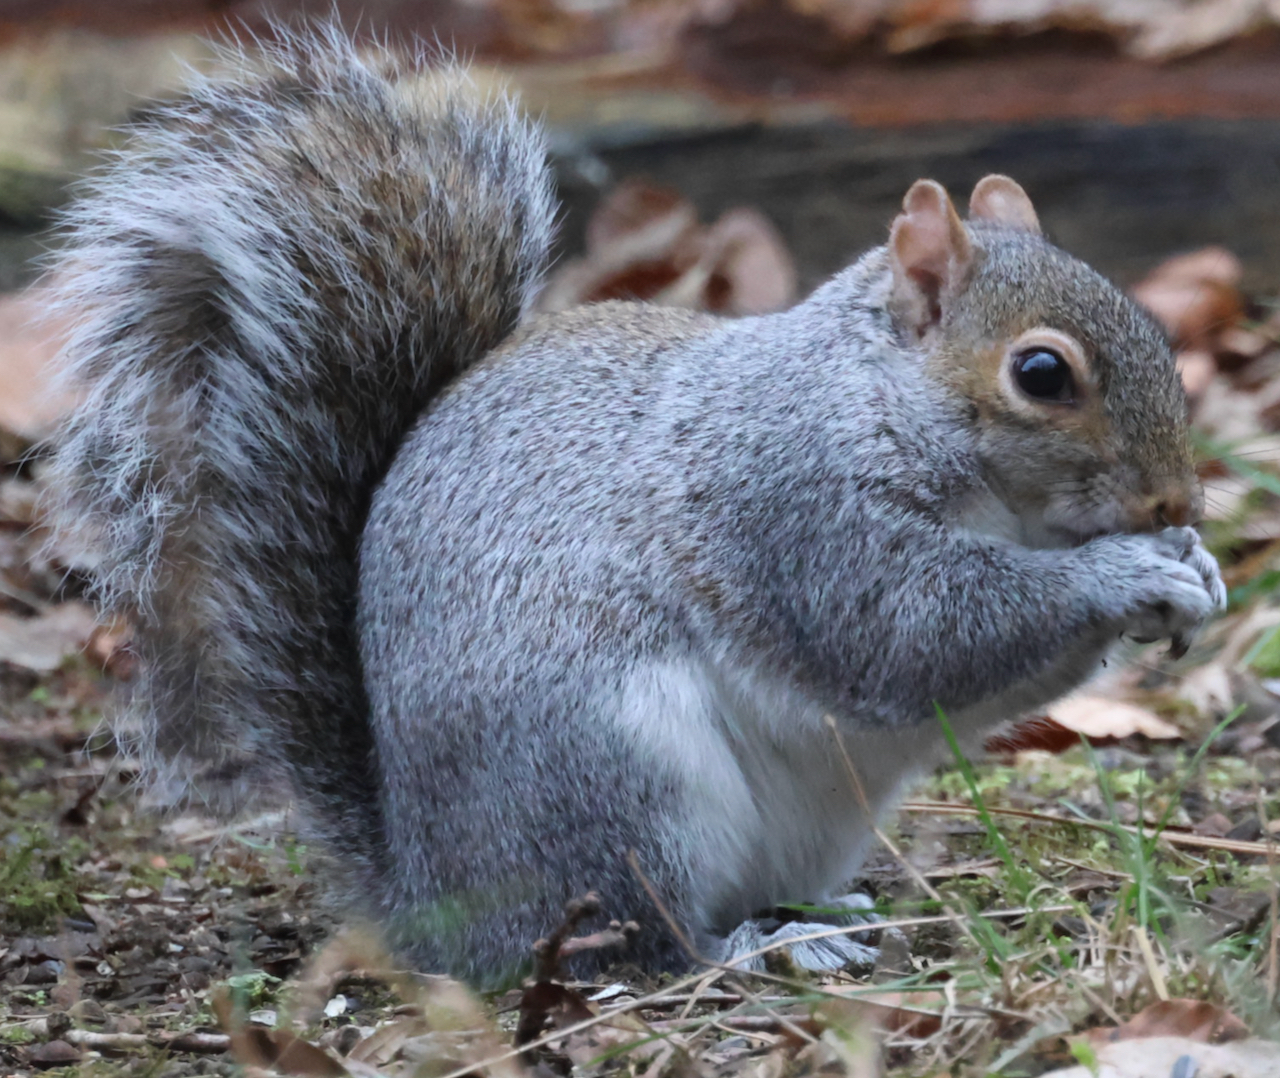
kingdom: Animalia
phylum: Chordata
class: Mammalia
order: Rodentia
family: Sciuridae
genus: Sciurus
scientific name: Sciurus carolinensis
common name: Eastern gray squirrel
